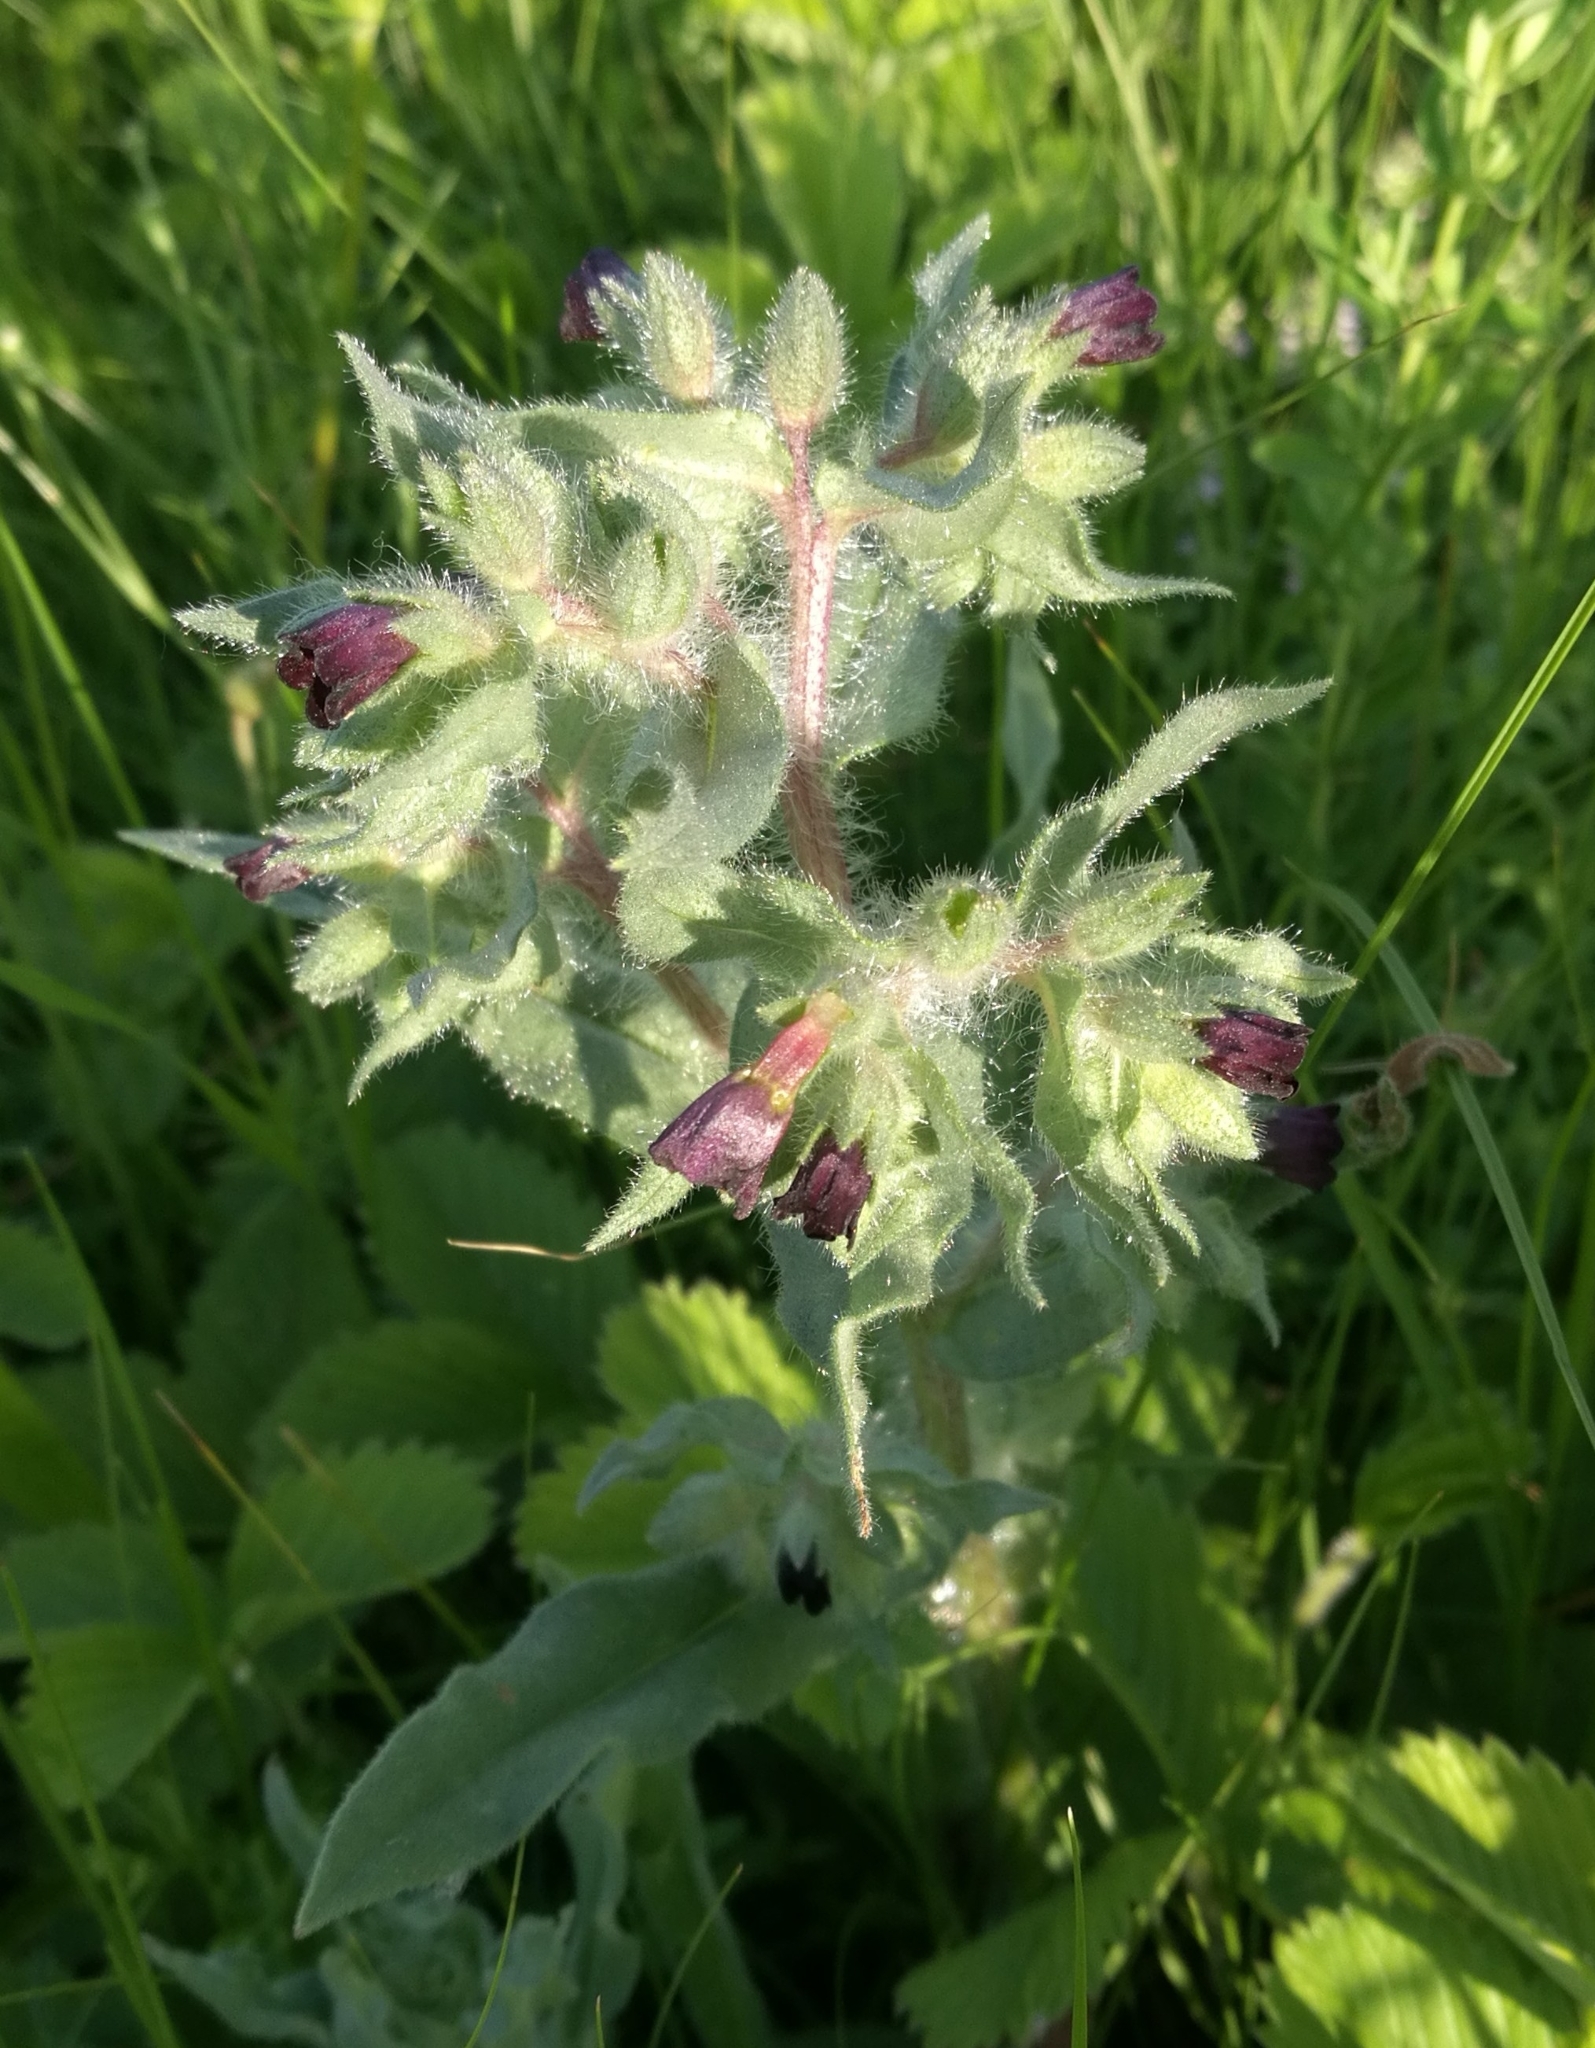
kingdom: Plantae
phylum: Tracheophyta
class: Magnoliopsida
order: Boraginales
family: Boraginaceae
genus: Nonea
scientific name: Nonea pulla
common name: Brown nonea
